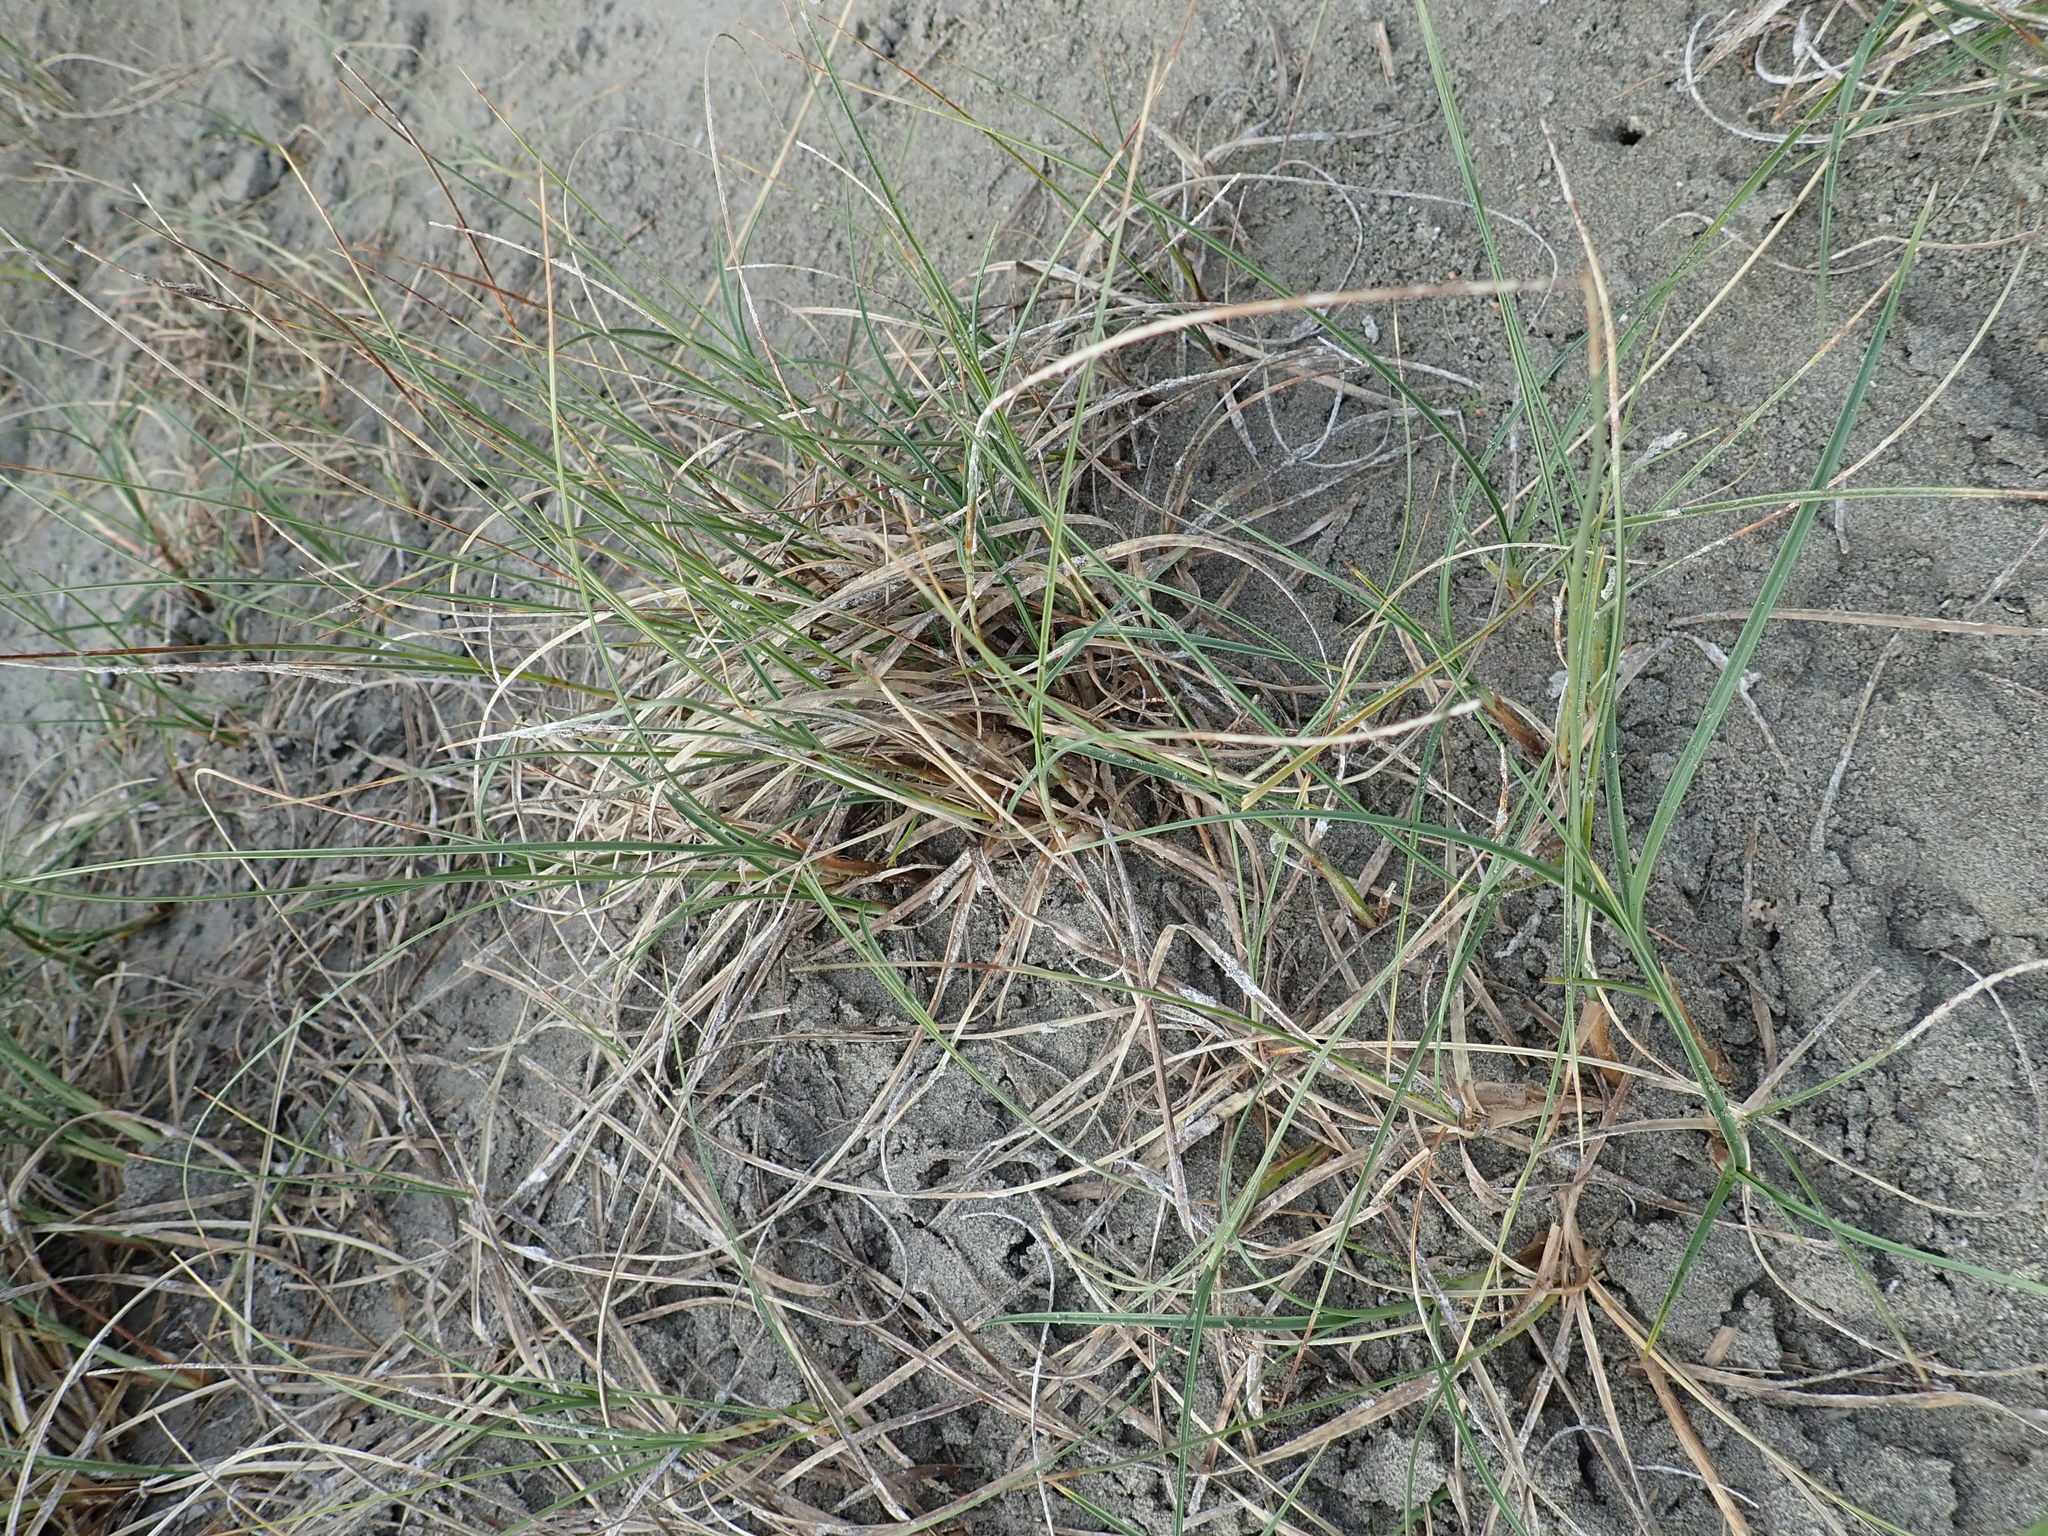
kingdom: Plantae
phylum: Tracheophyta
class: Liliopsida
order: Poales
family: Cyperaceae
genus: Carex
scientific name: Carex pumila
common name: Dwarf sedge
